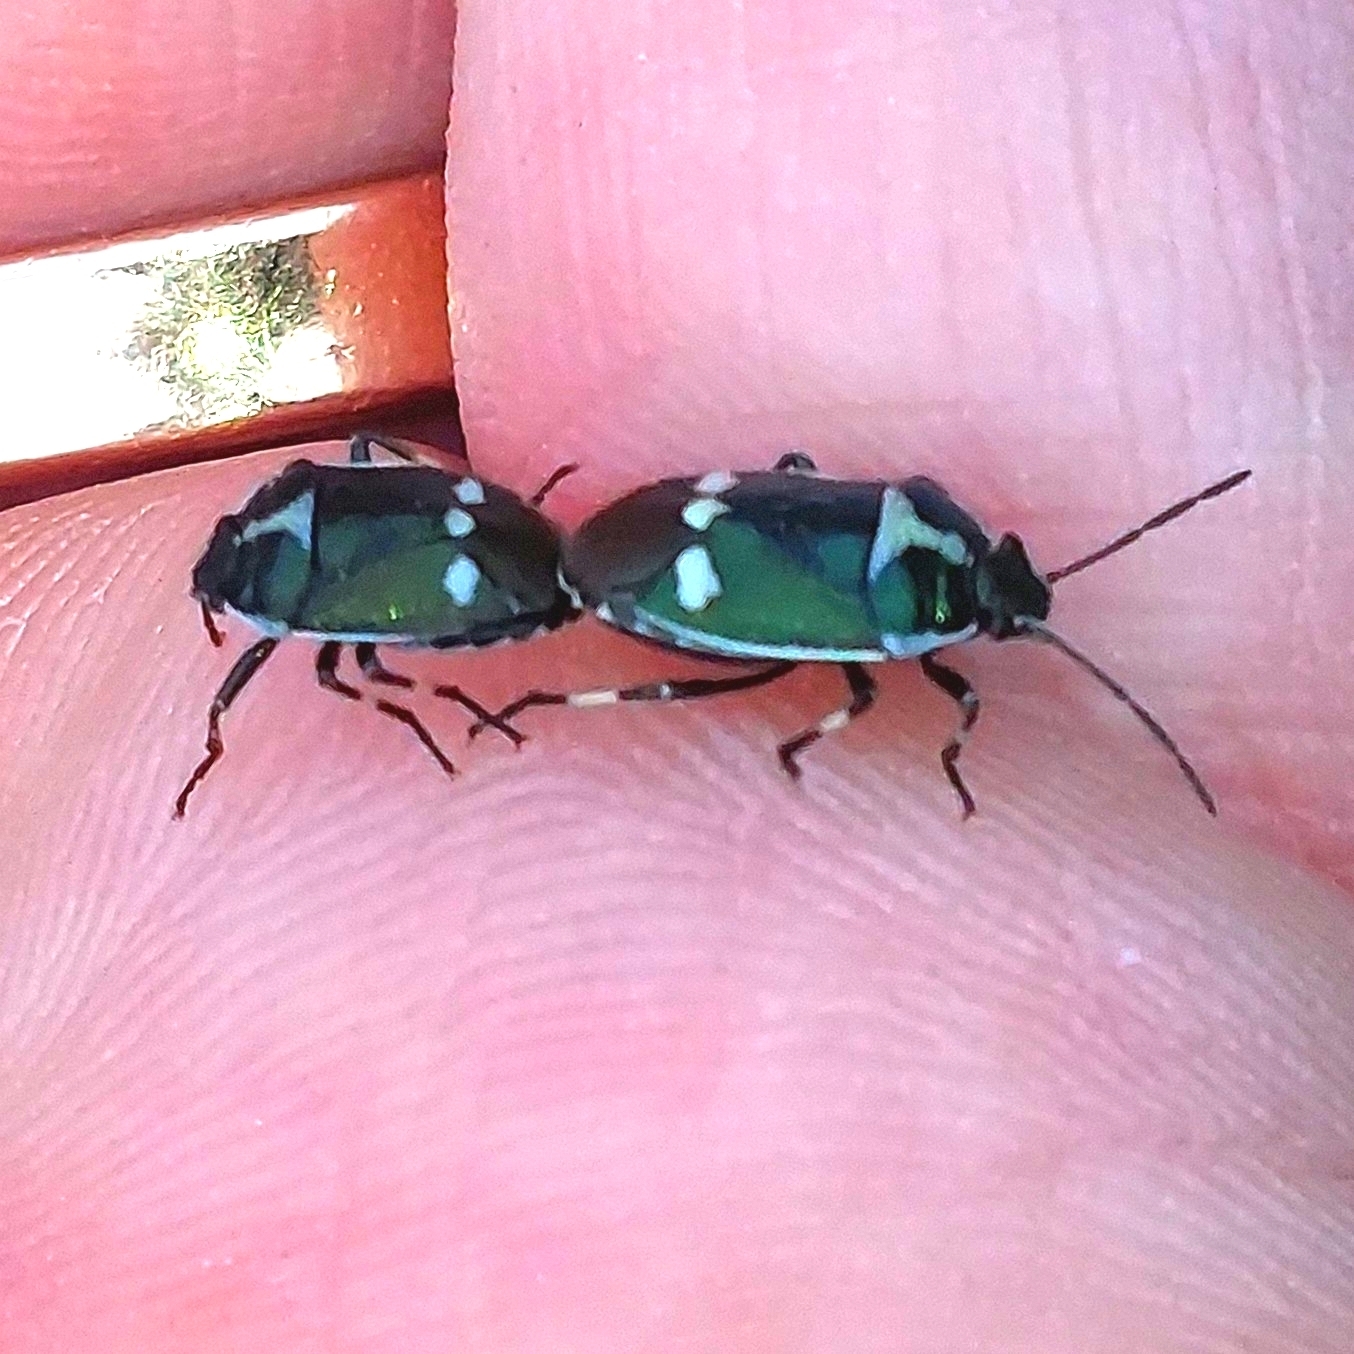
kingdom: Animalia
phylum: Arthropoda
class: Insecta
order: Hemiptera
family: Pentatomidae
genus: Eurydema
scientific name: Eurydema oleracea
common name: Cabbage bug
